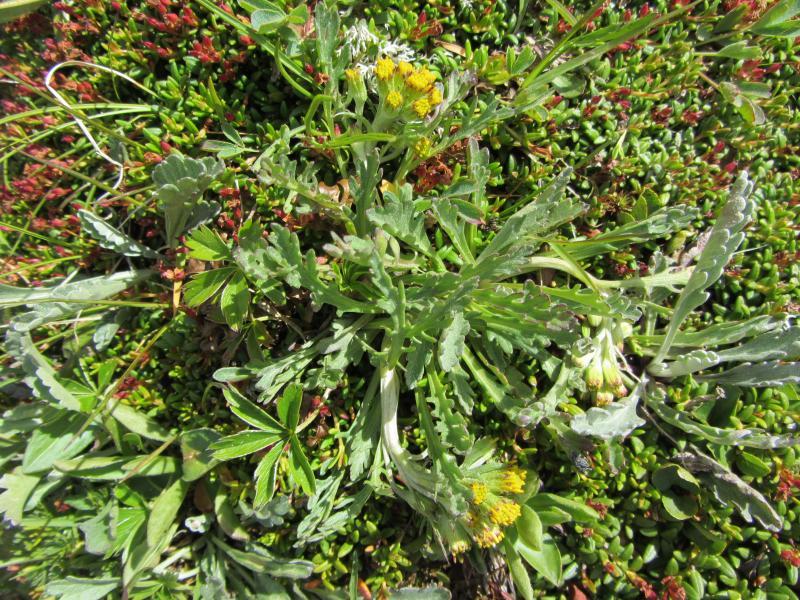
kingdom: Plantae
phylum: Tracheophyta
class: Magnoliopsida
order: Asterales
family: Asteraceae
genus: Jacobaea
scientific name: Jacobaea carniolica
